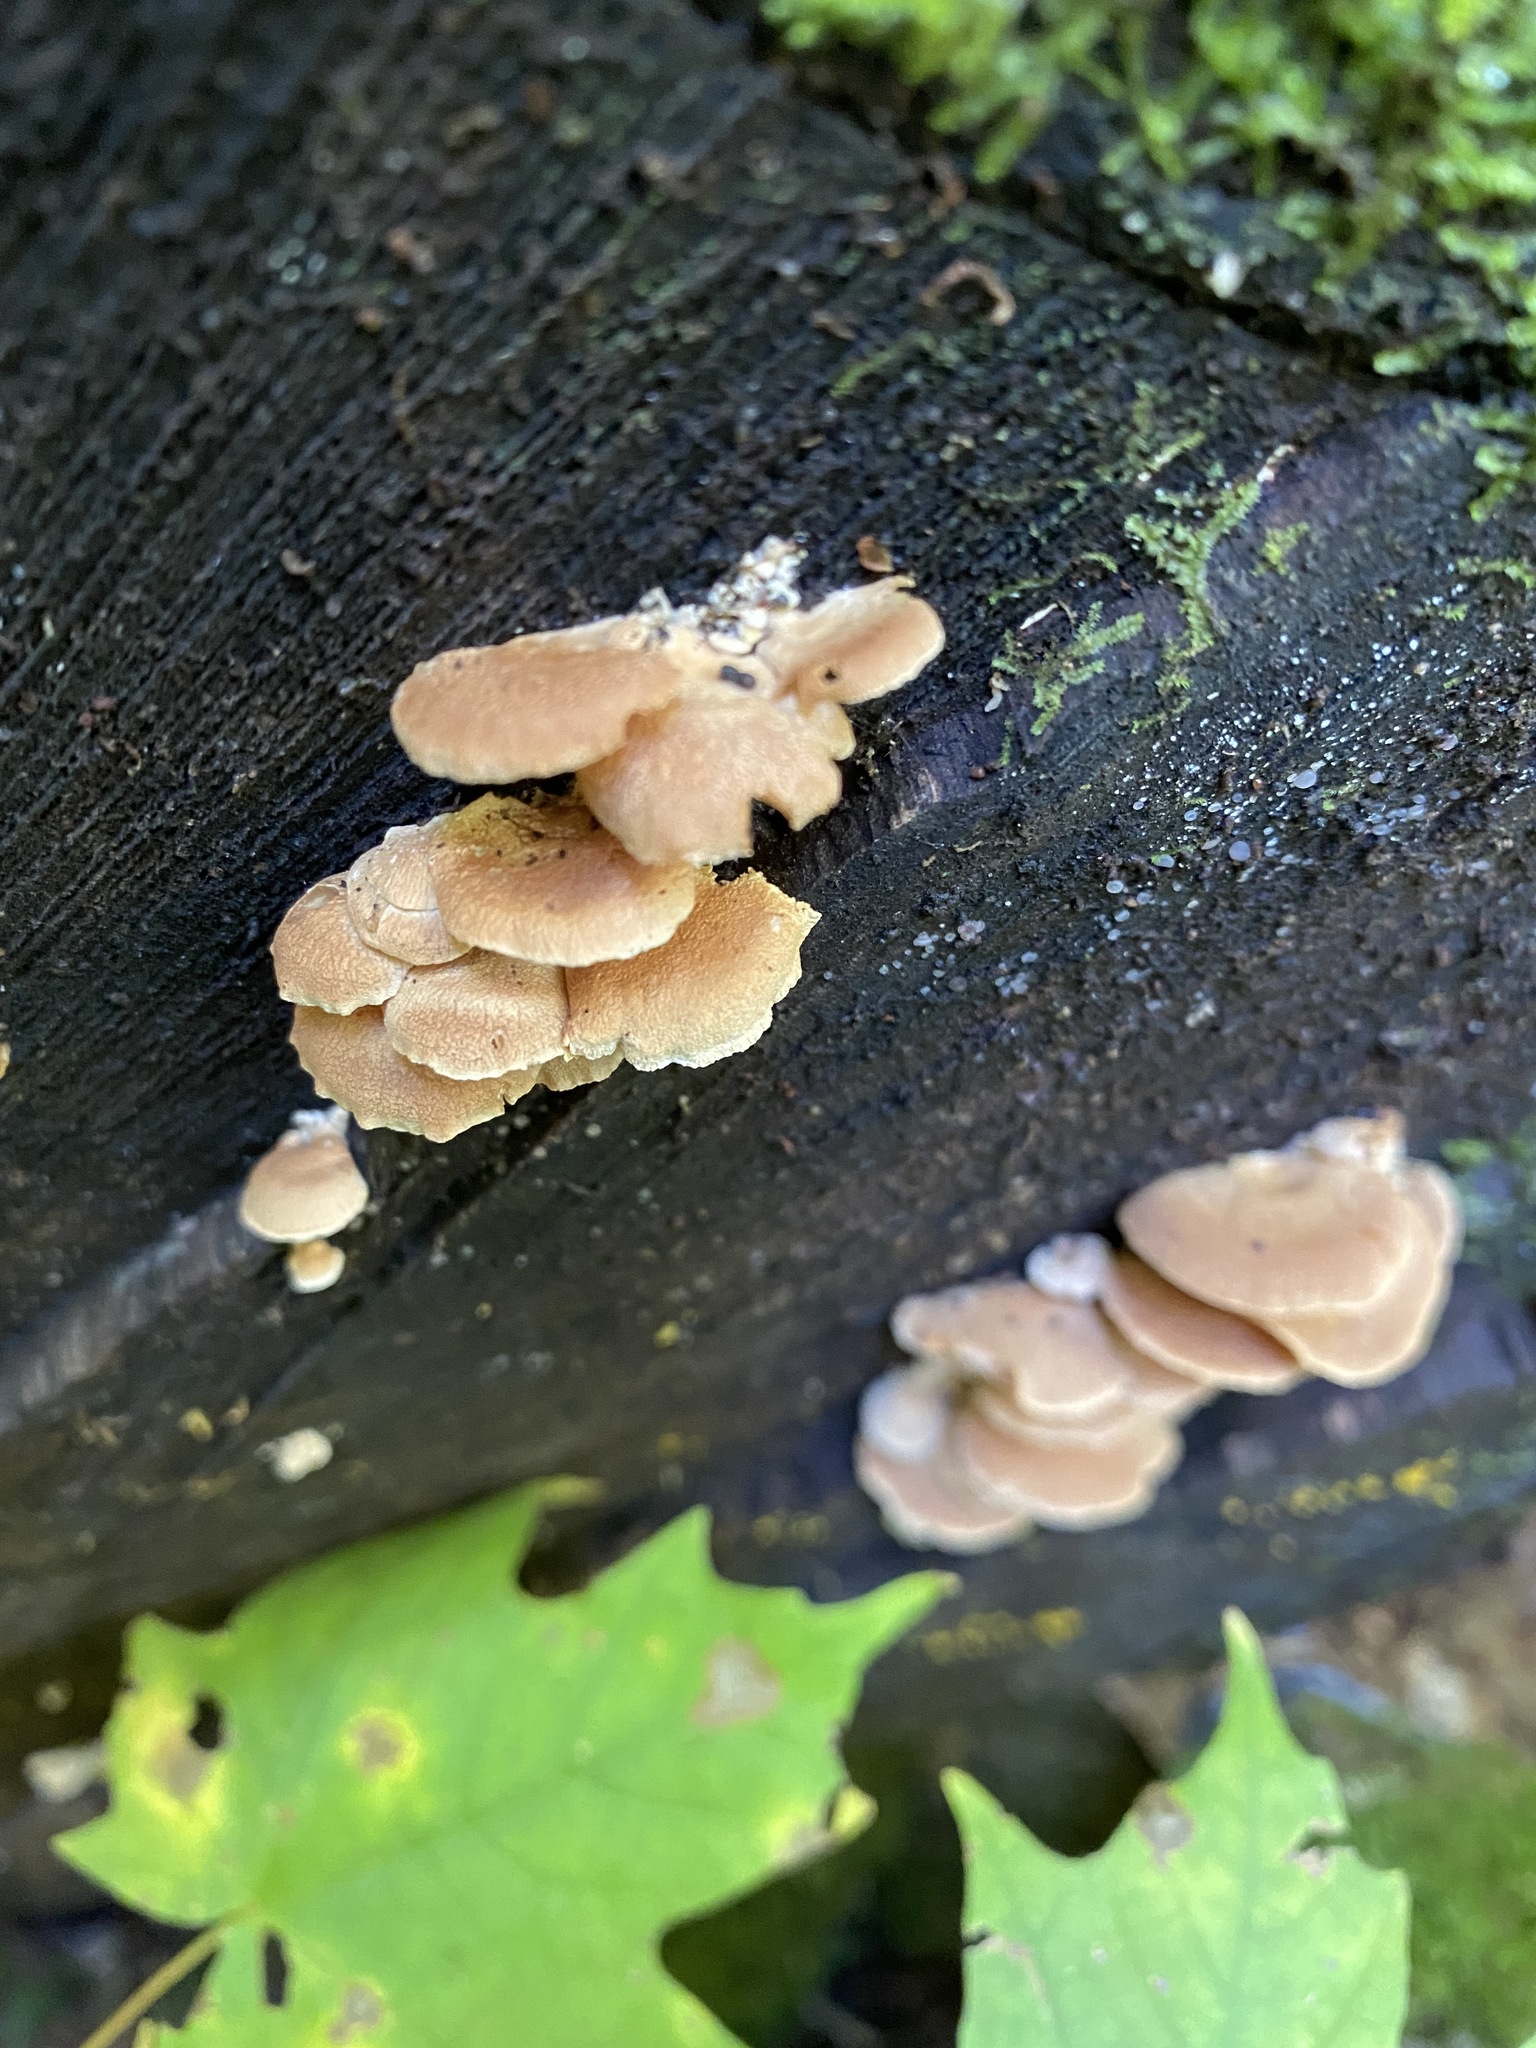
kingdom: Fungi
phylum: Basidiomycota
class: Agaricomycetes
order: Agaricales
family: Mycenaceae
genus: Panellus
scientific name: Panellus stipticus
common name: Bitter oysterling
